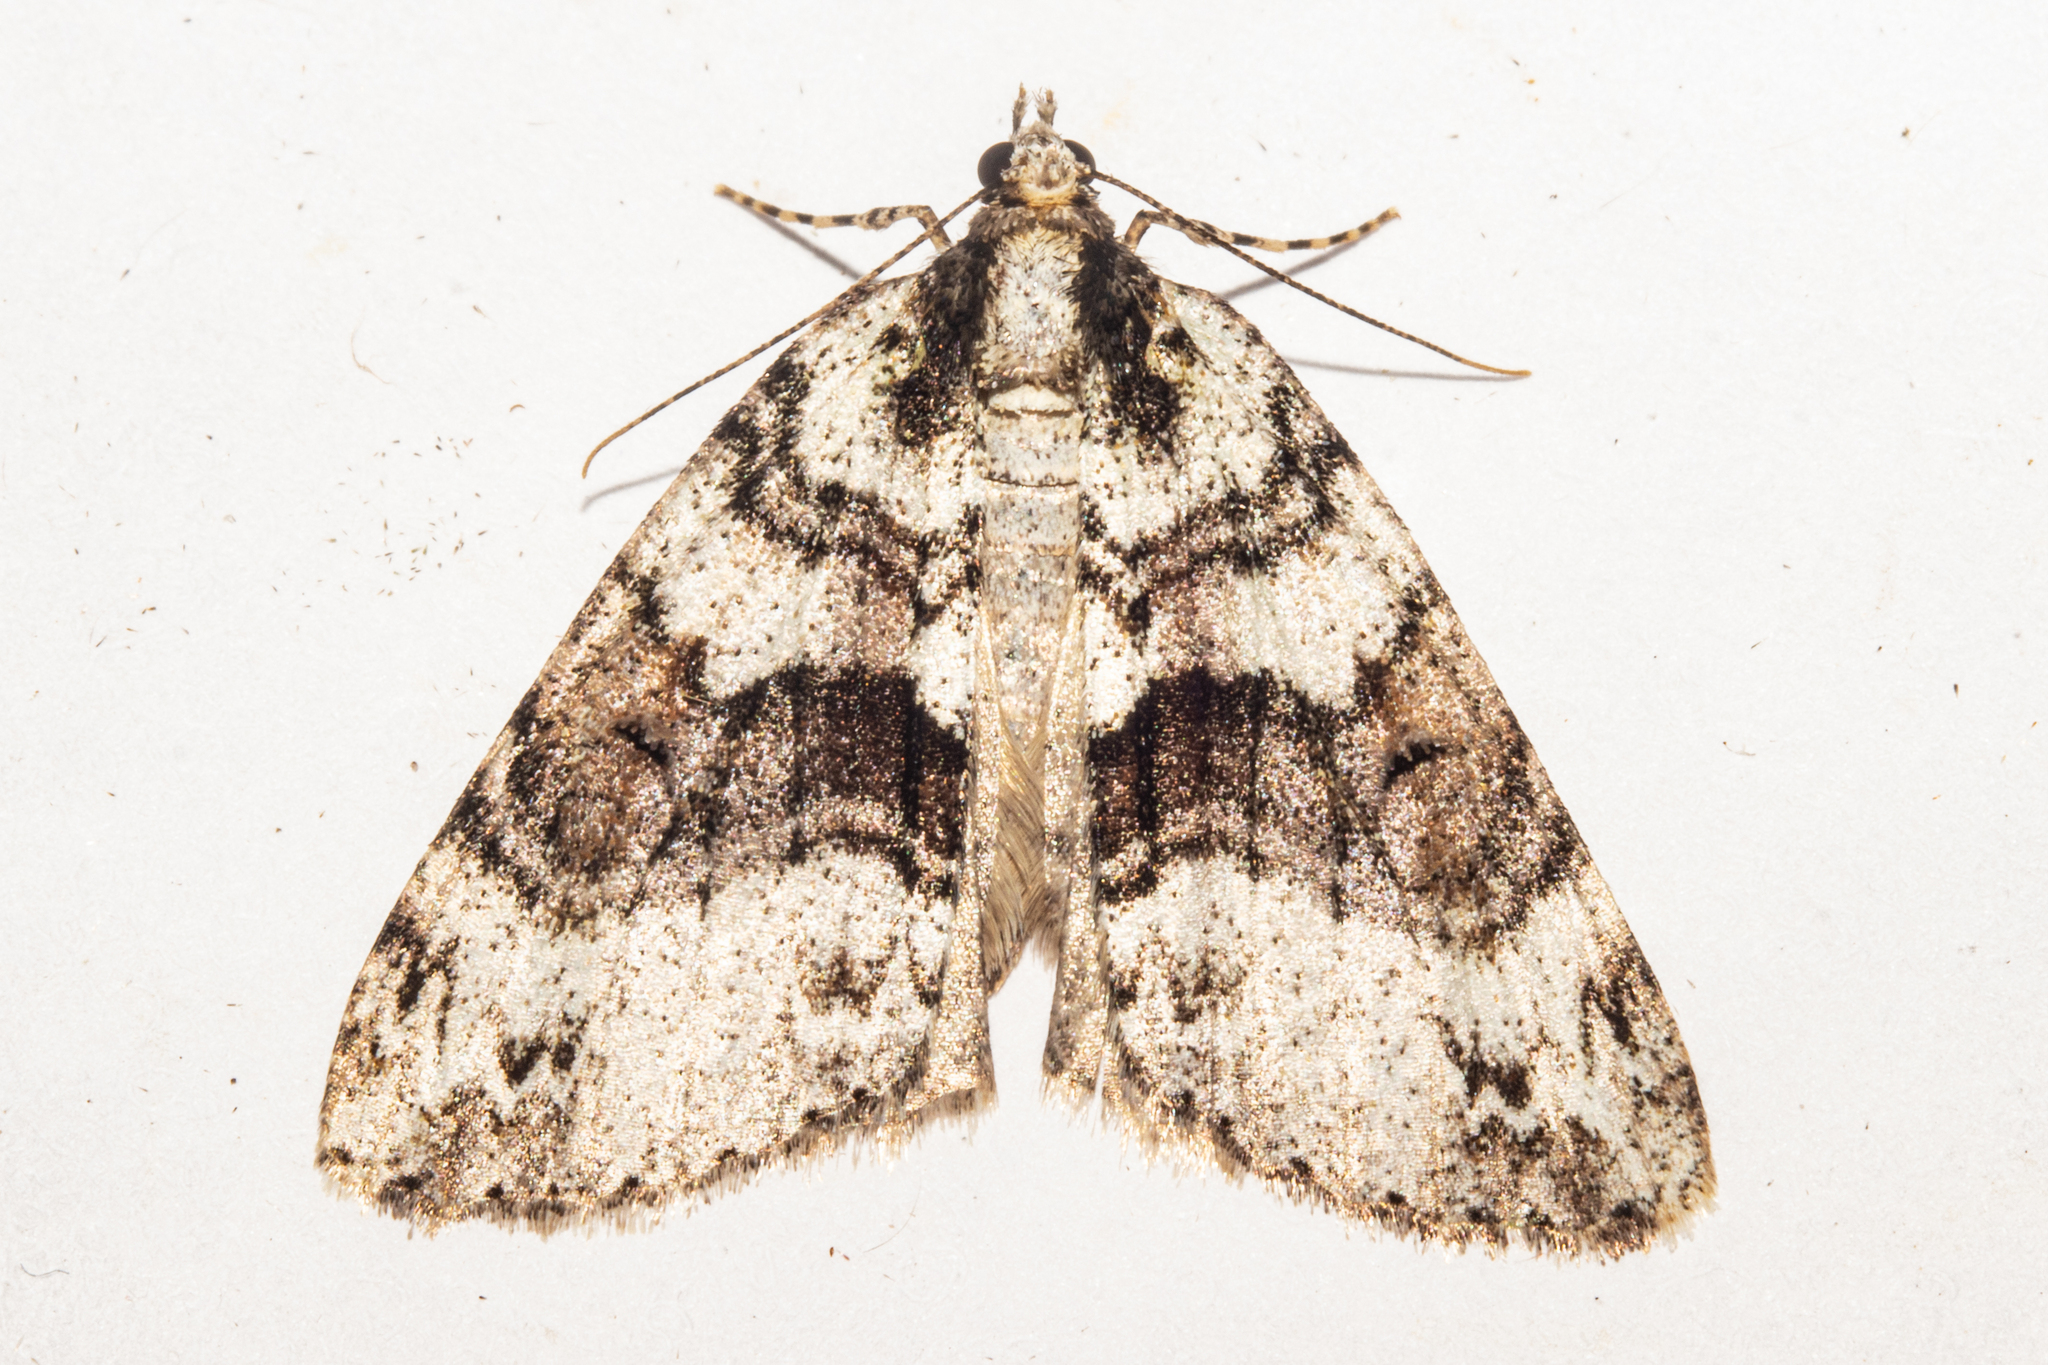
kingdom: Animalia
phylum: Arthropoda
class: Insecta
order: Lepidoptera
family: Geometridae
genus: Pseudocoremia
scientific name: Pseudocoremia suavis
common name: Common forest looper
